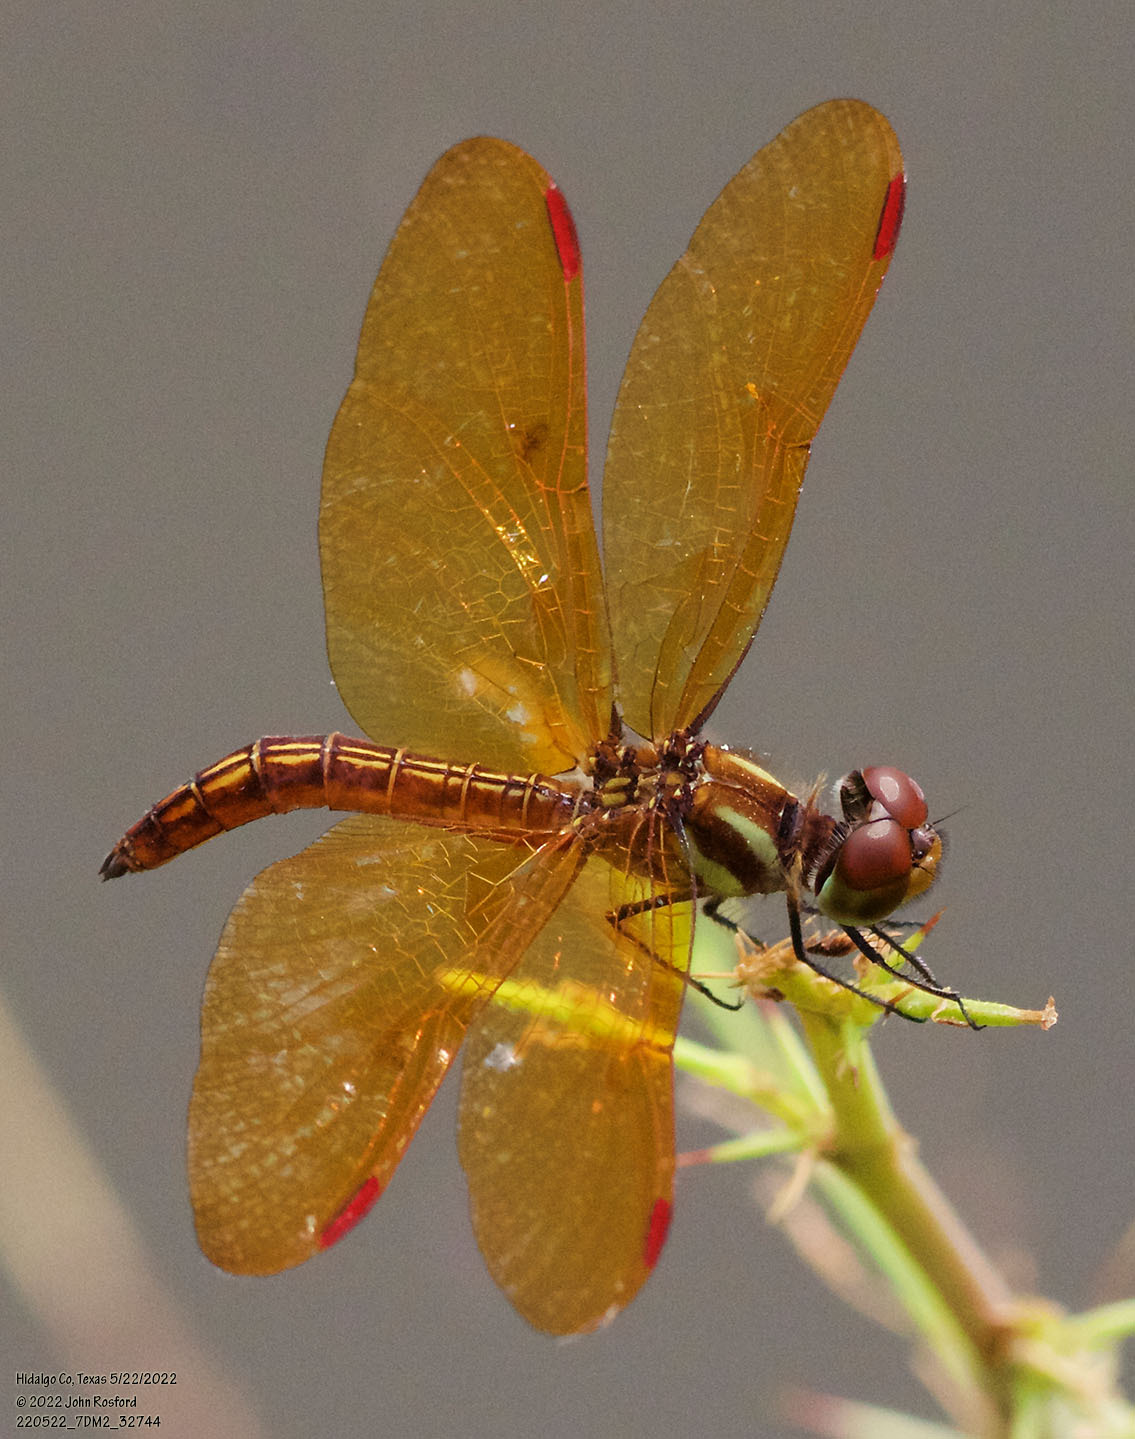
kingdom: Animalia
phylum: Arthropoda
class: Insecta
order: Odonata
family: Libellulidae
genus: Perithemis
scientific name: Perithemis domitia
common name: Slough amberwing
